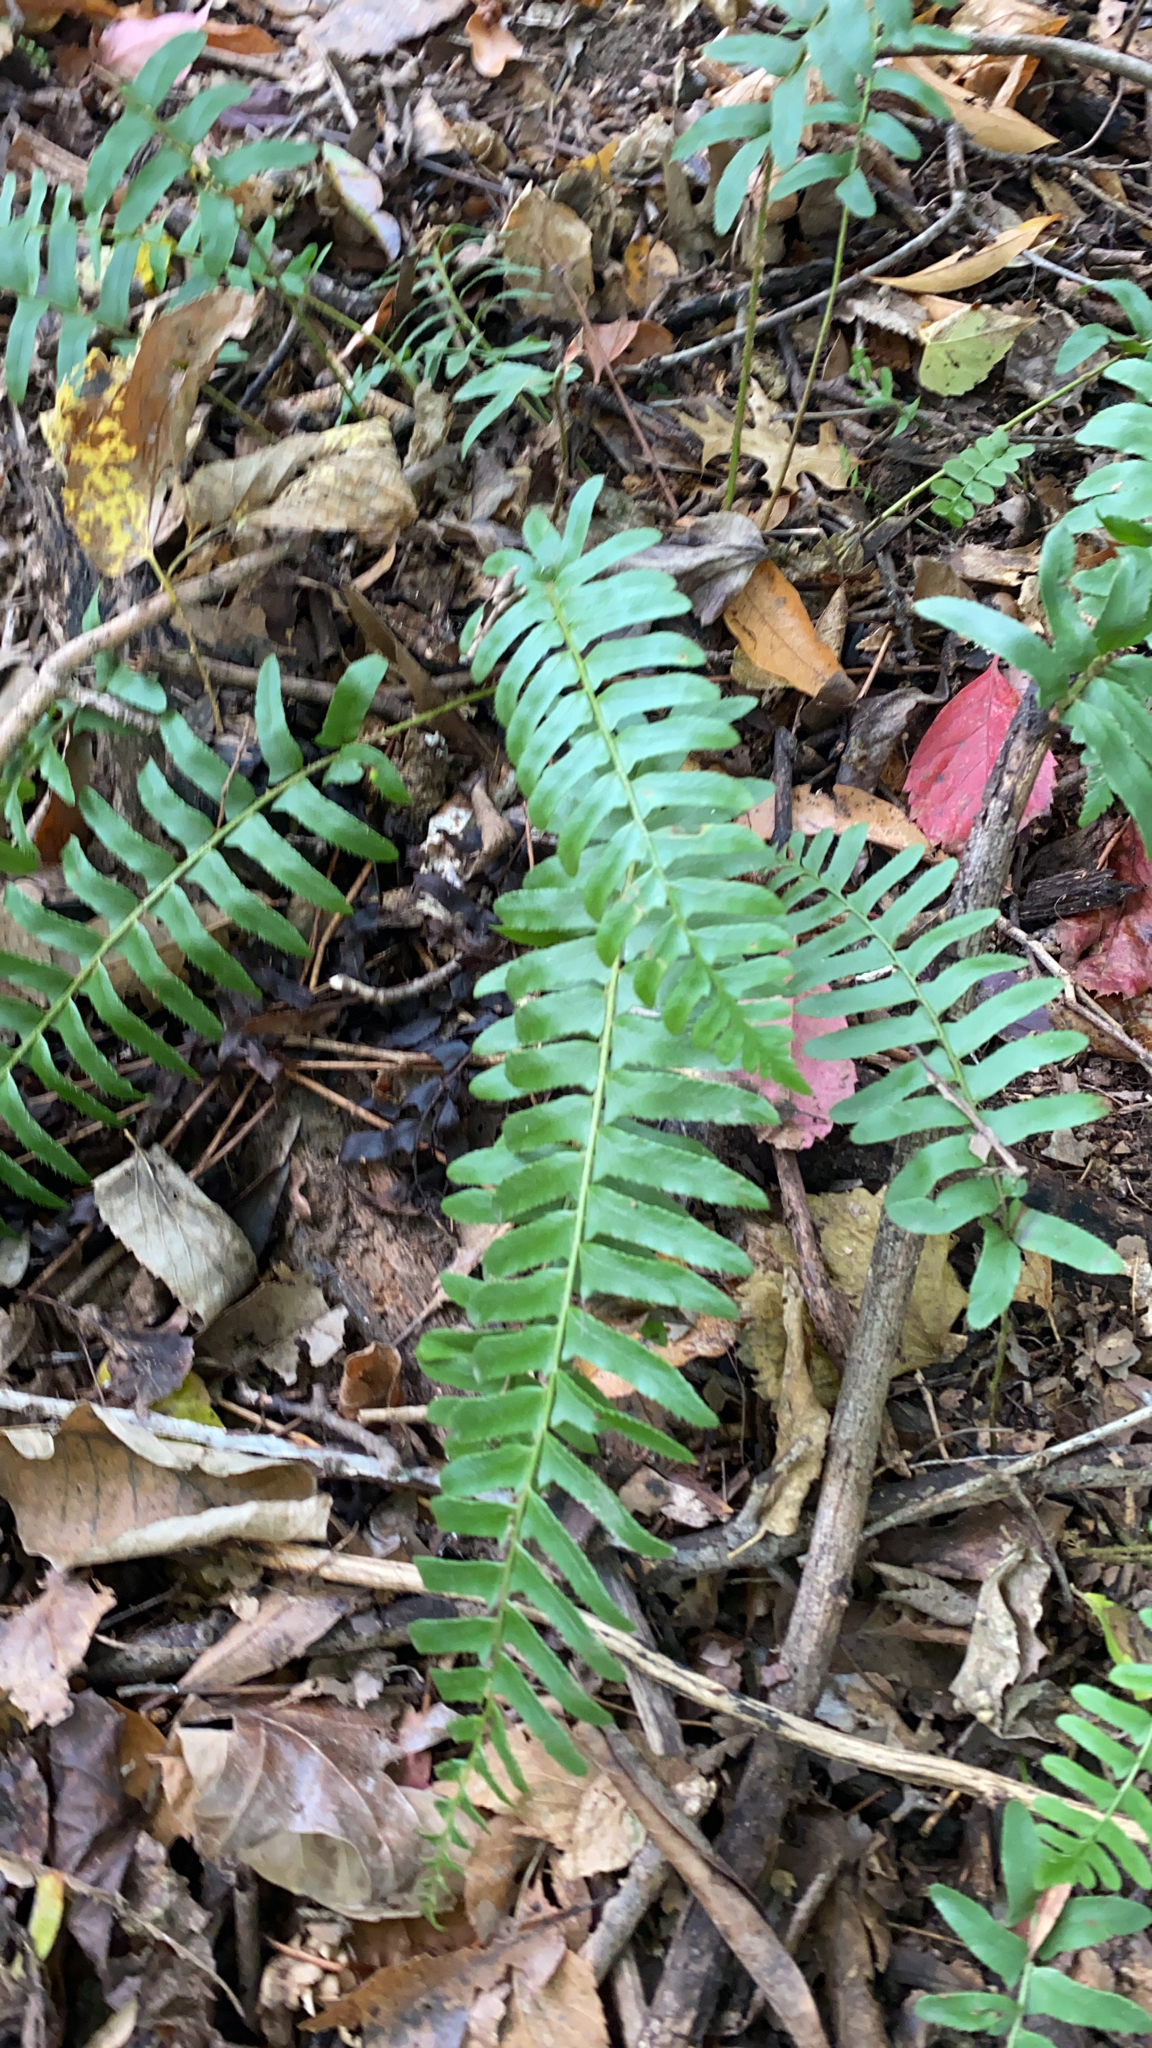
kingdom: Plantae
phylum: Tracheophyta
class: Polypodiopsida
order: Polypodiales
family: Dryopteridaceae
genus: Polystichum
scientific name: Polystichum acrostichoides
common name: Christmas fern
